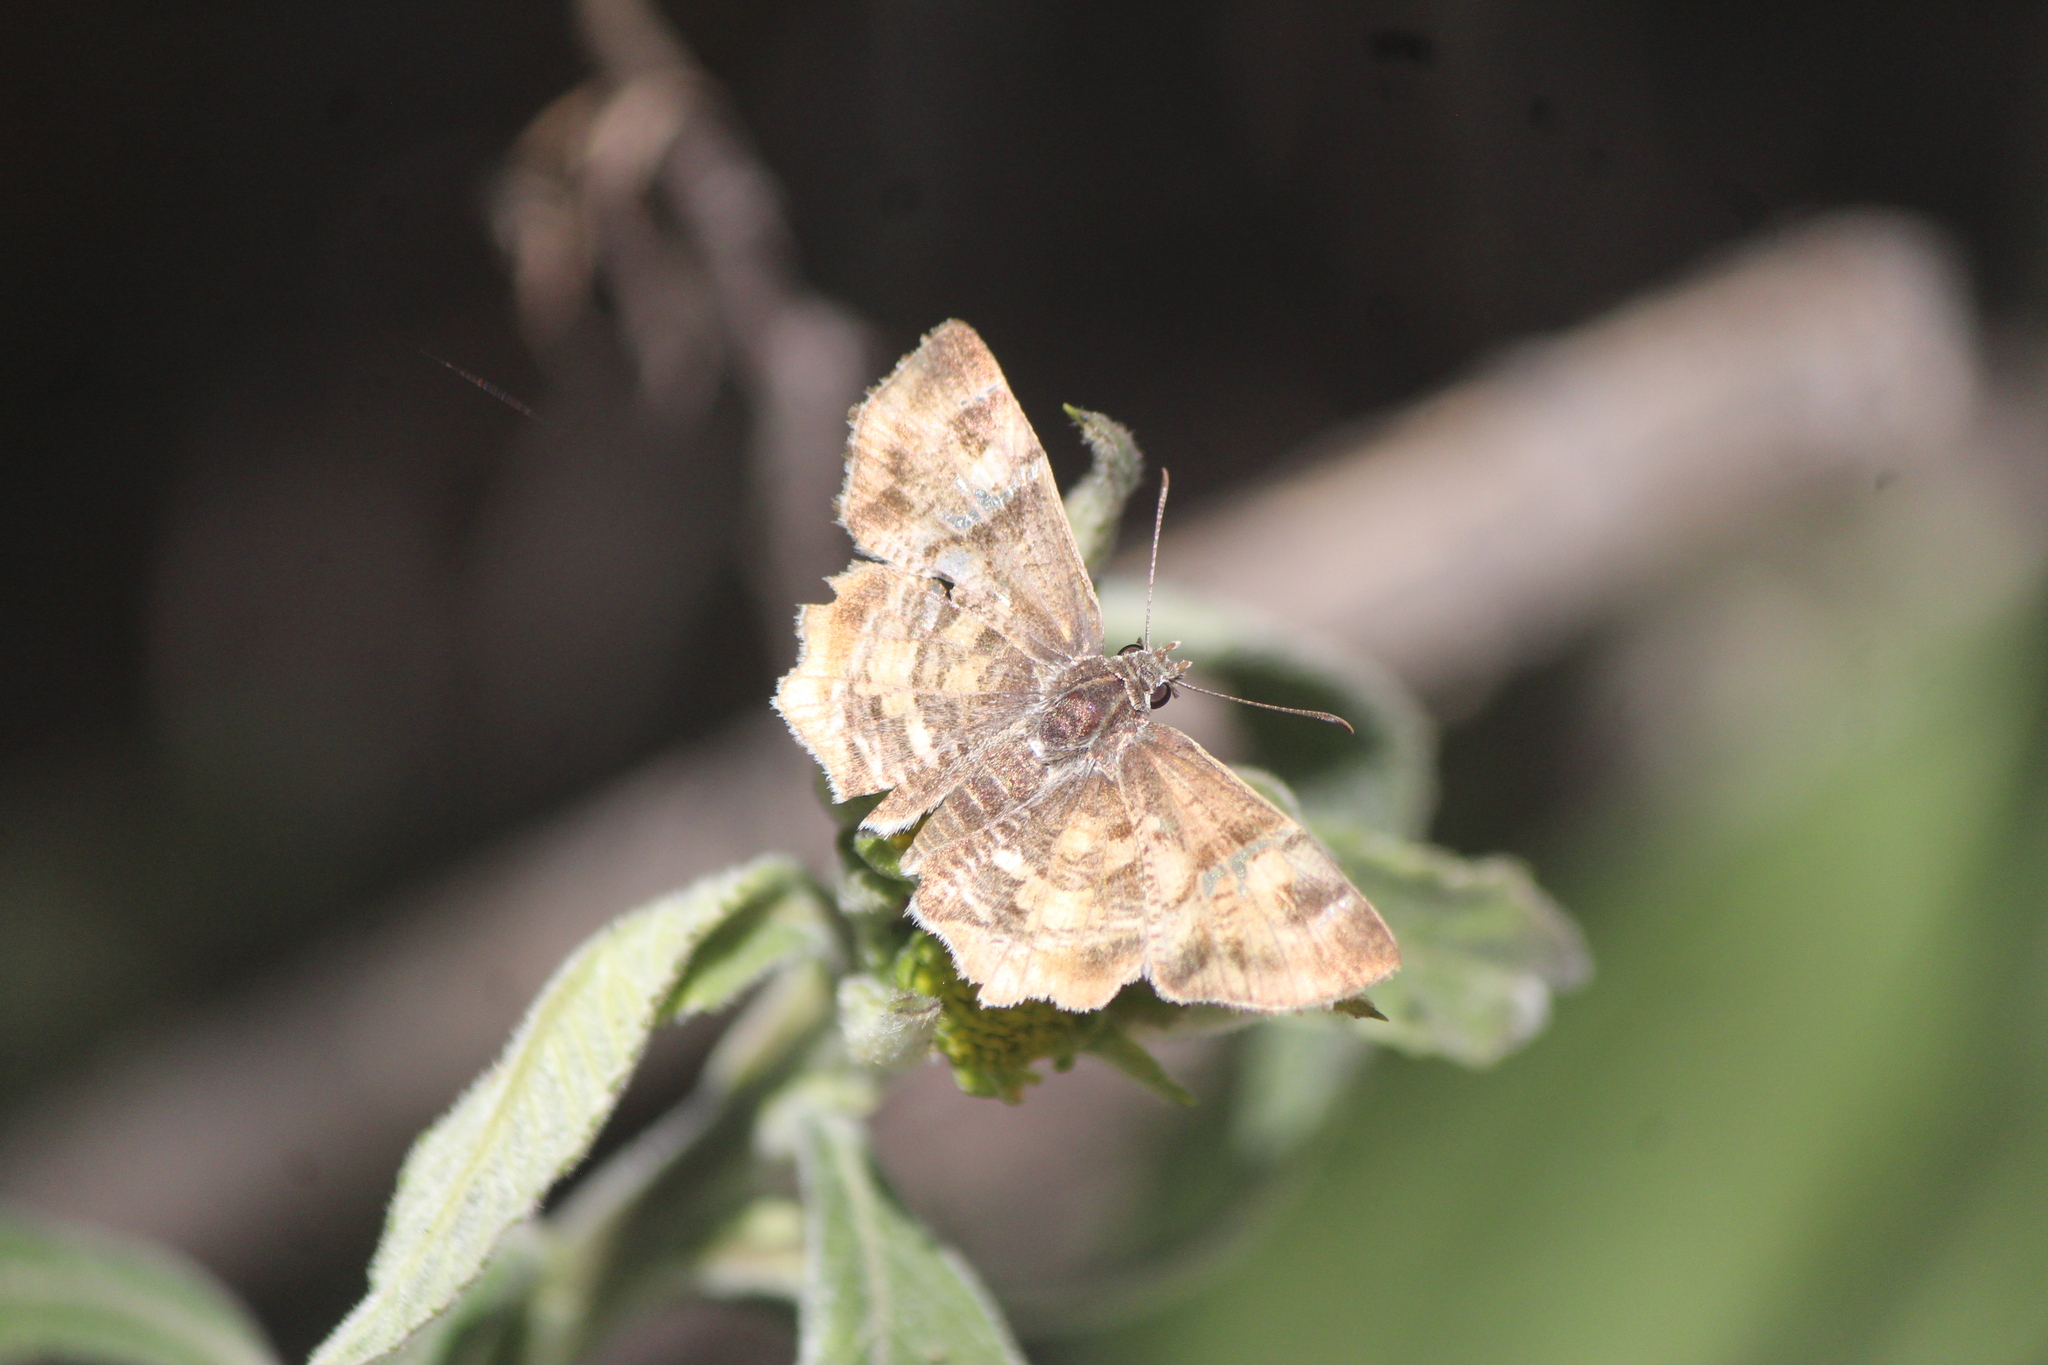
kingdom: Animalia
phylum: Arthropoda
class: Insecta
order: Lepidoptera
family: Hesperiidae
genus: Systasea
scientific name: Systasea pulverulenta
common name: Texas powdered skipper
